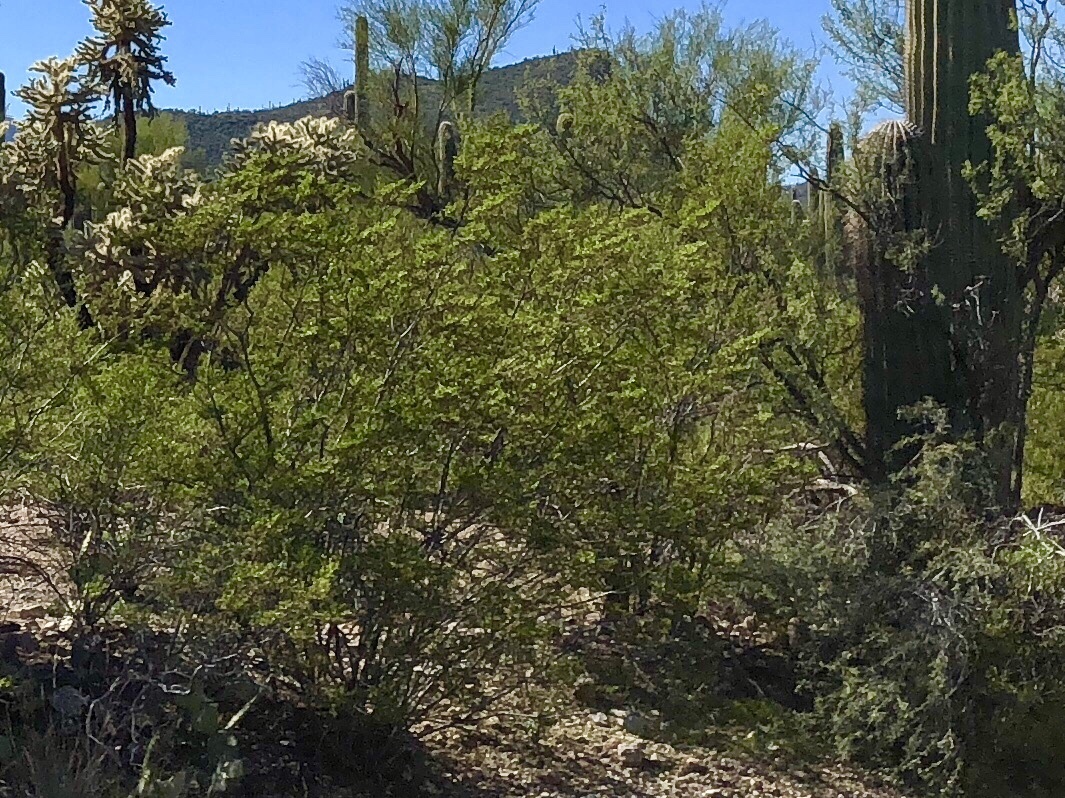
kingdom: Plantae
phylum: Tracheophyta
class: Magnoliopsida
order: Zygophyllales
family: Zygophyllaceae
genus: Larrea
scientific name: Larrea tridentata
